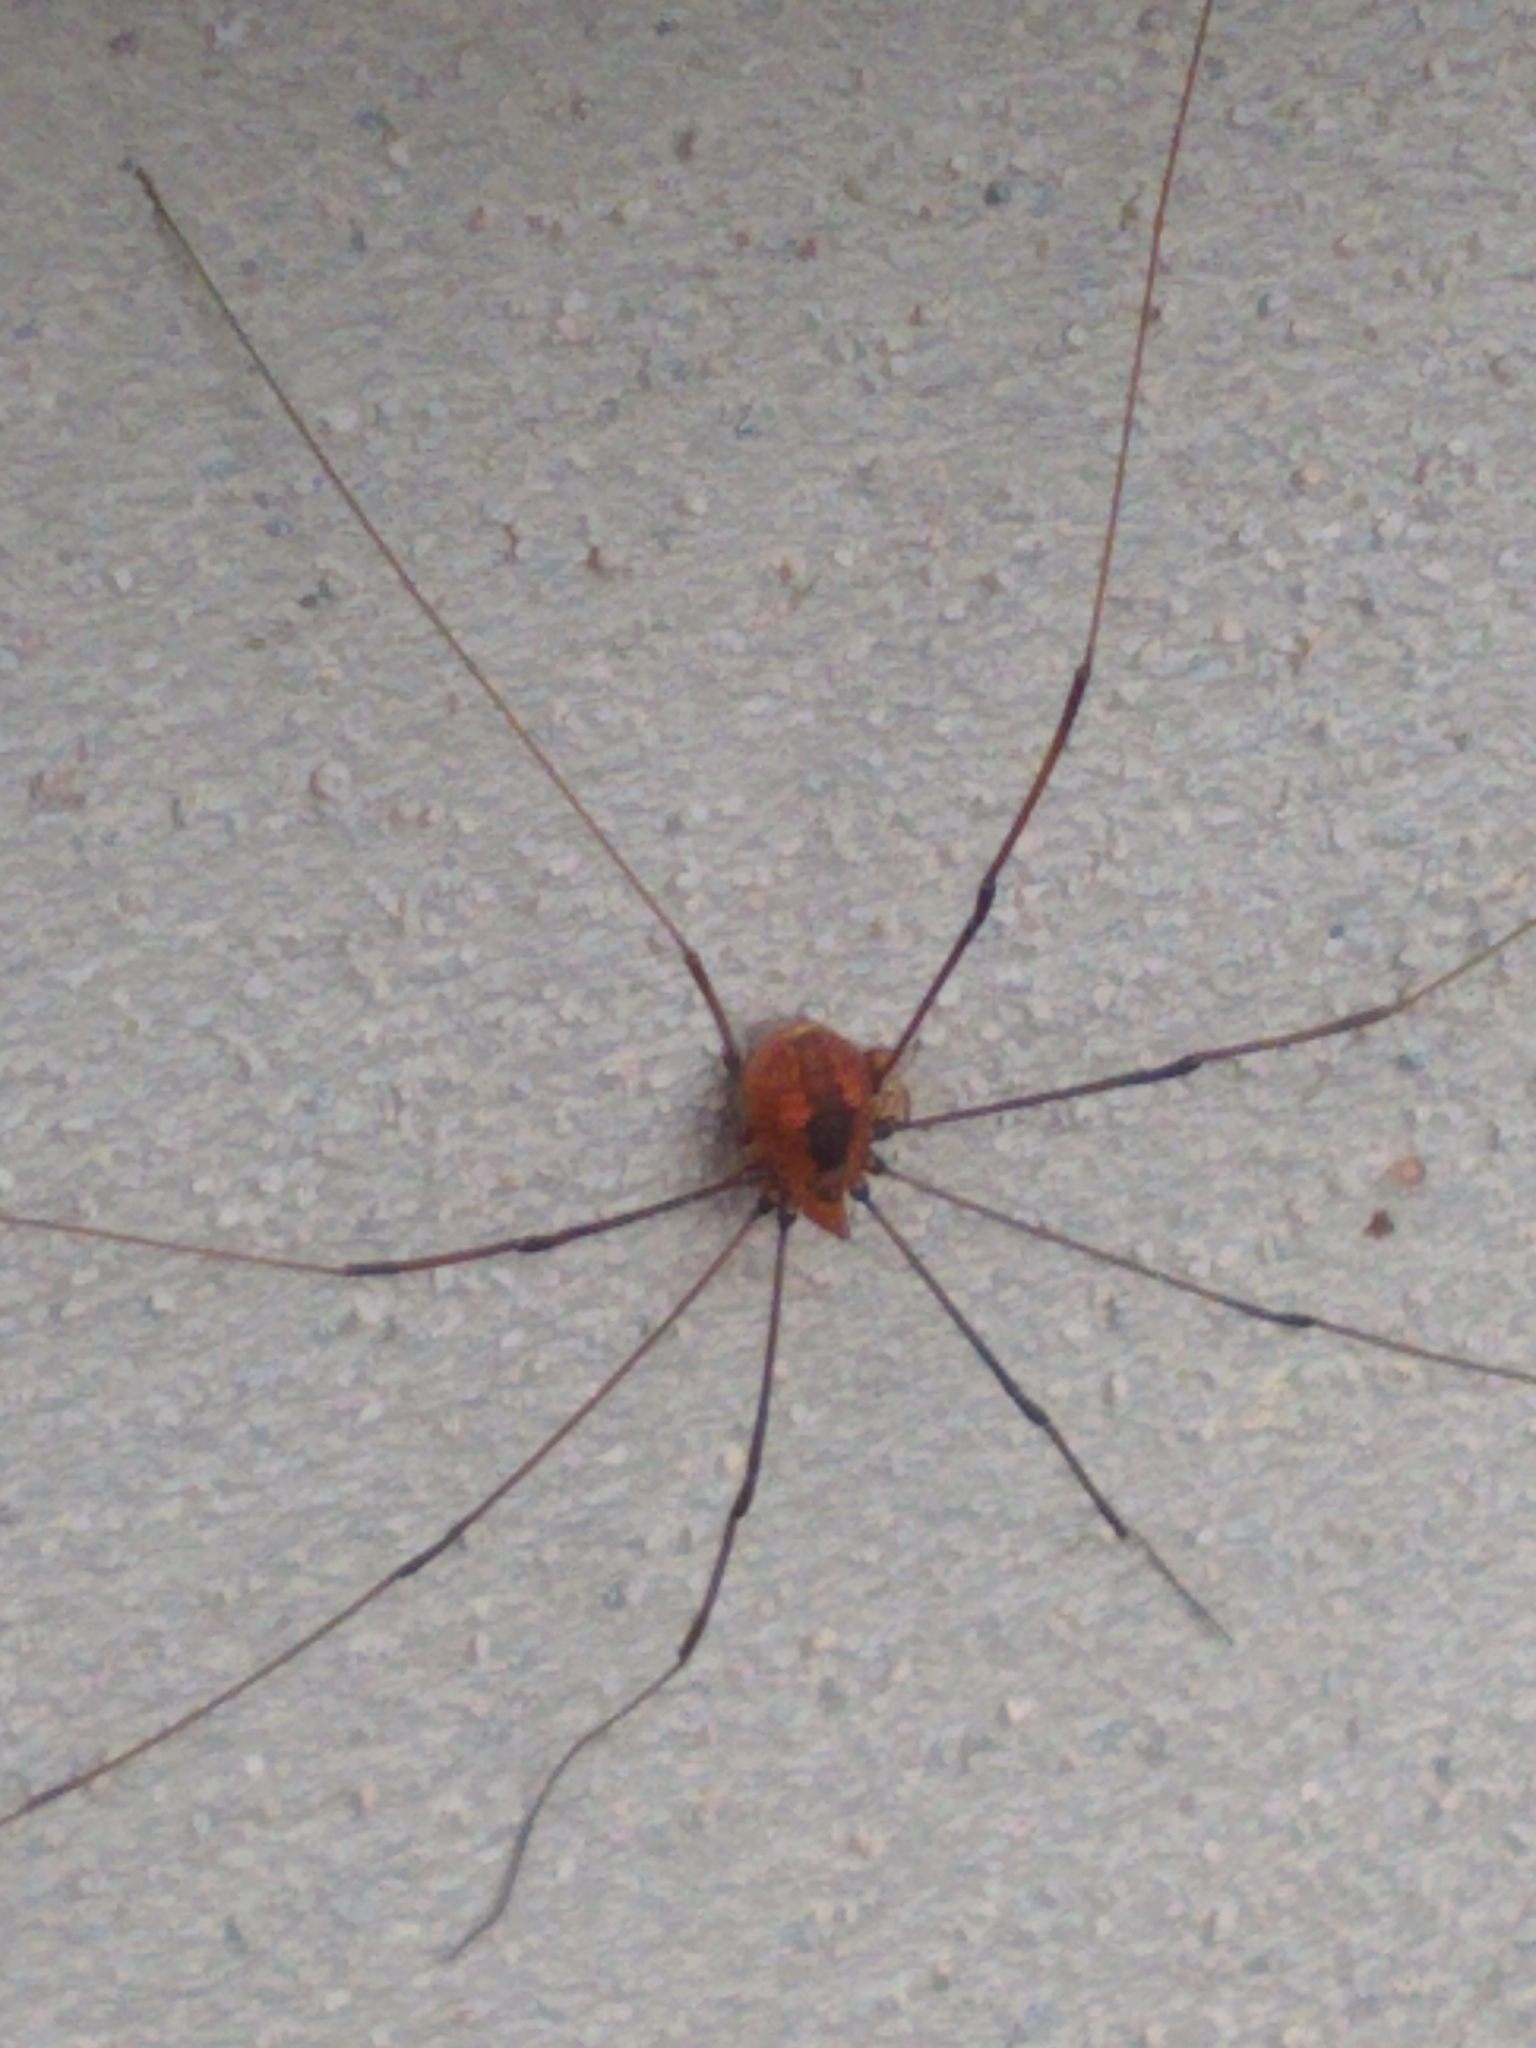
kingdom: Animalia
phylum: Arthropoda
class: Arachnida
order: Opiliones
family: Sclerosomatidae
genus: Leiobunum
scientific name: Leiobunum vittatum
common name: Eastern harvestman
